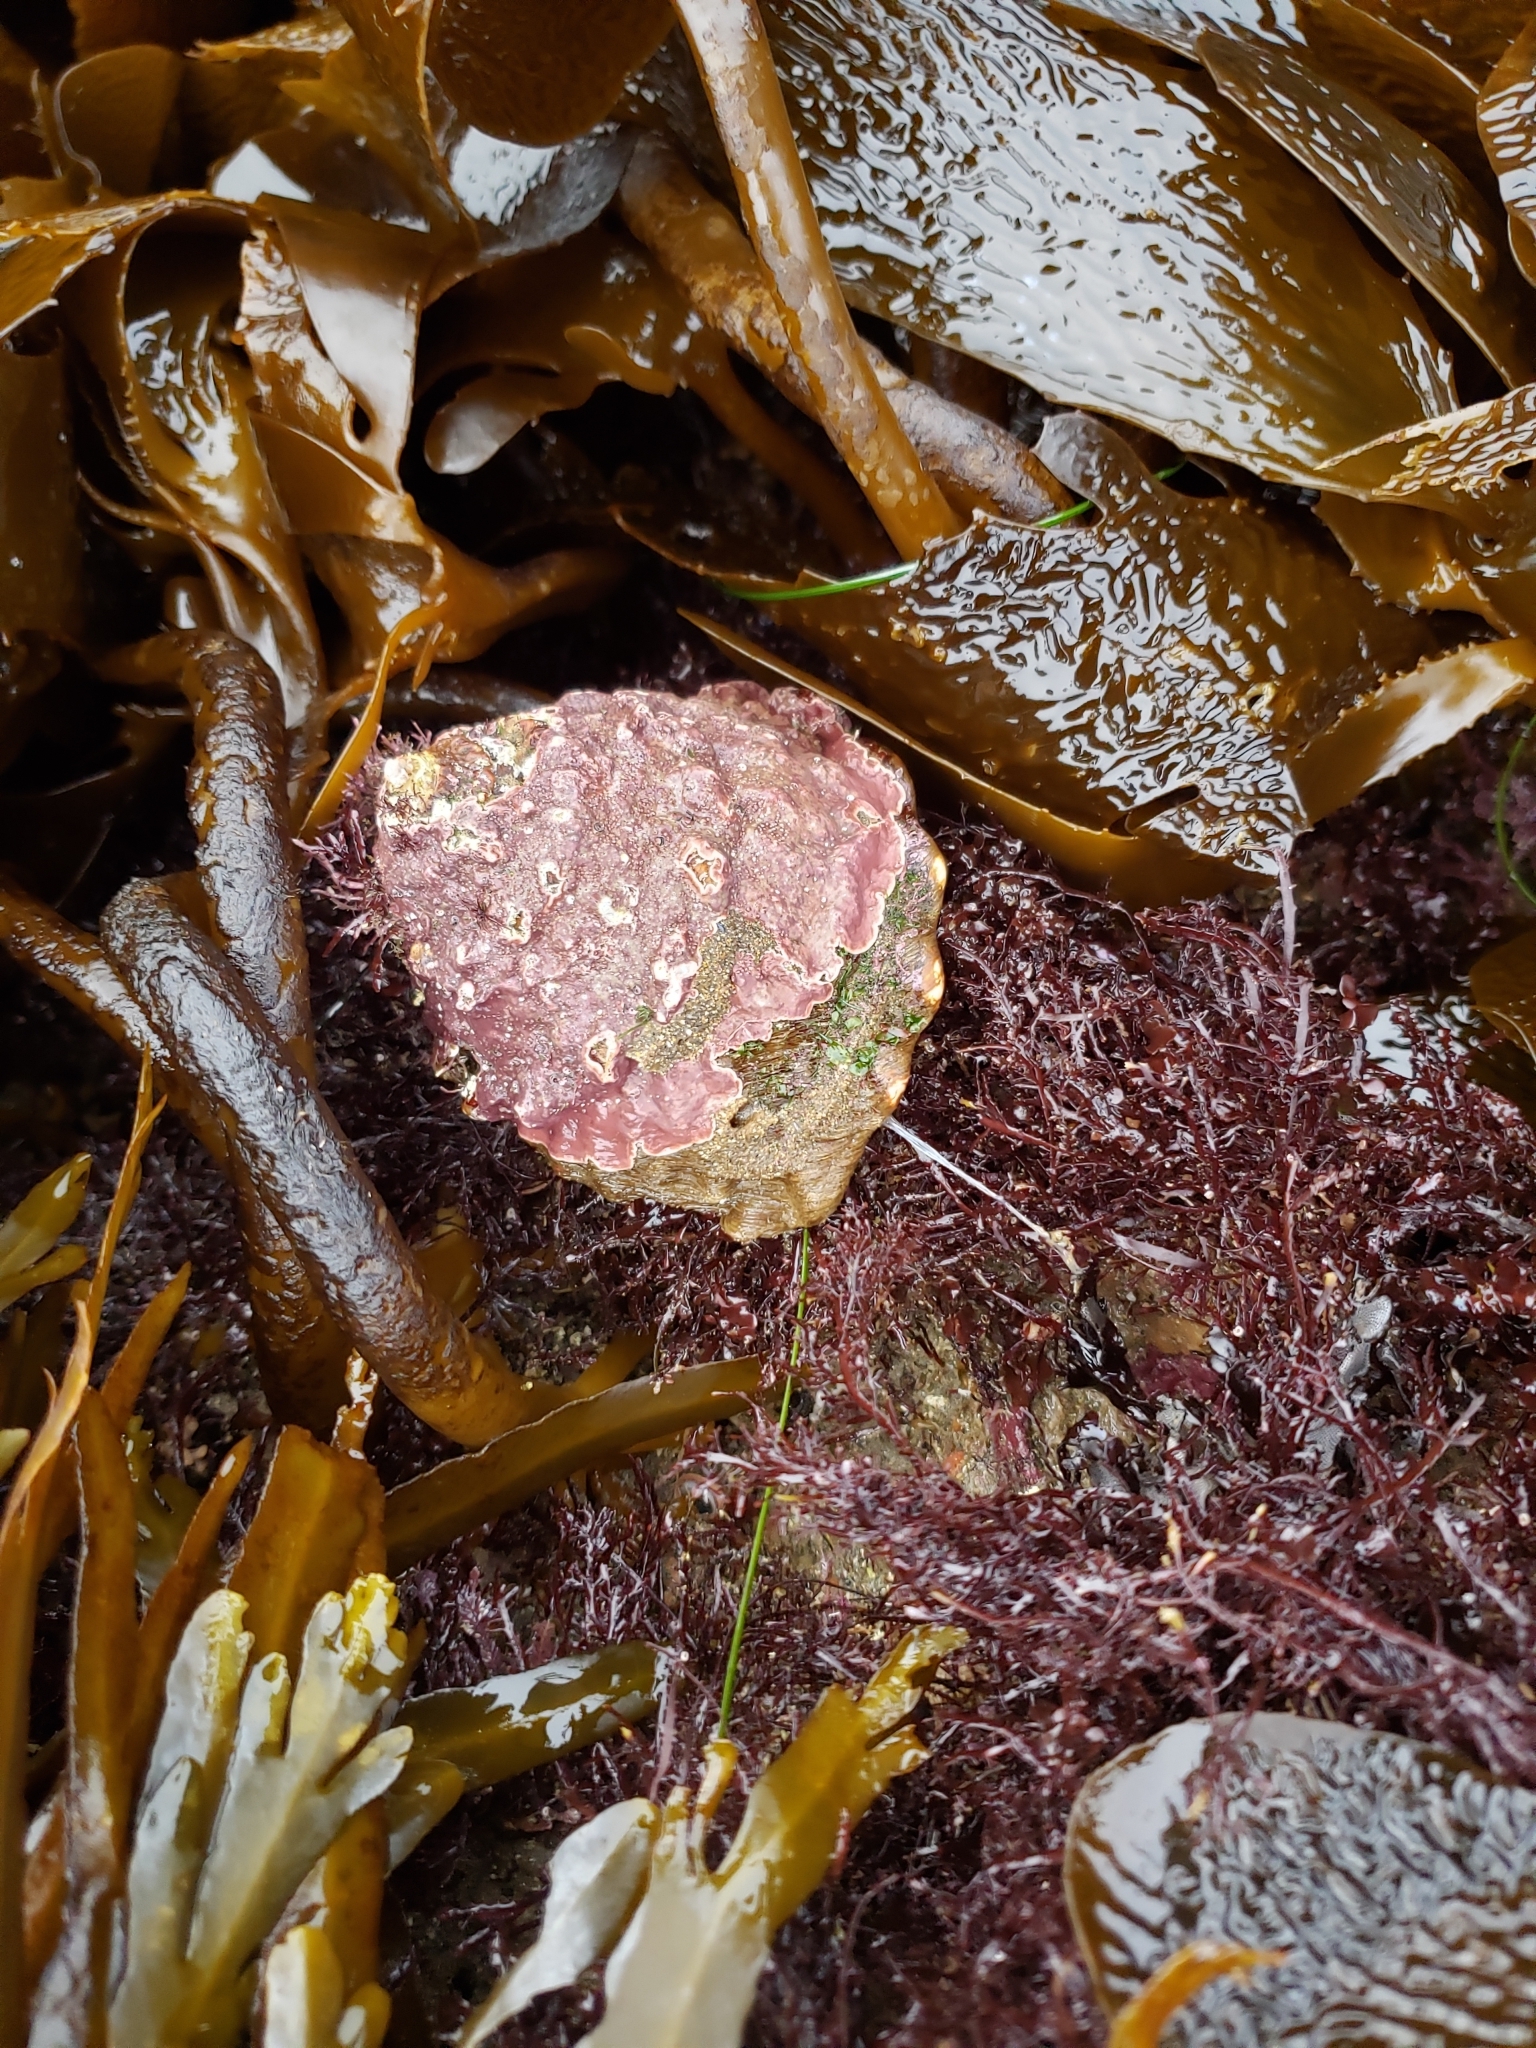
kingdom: Animalia
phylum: Mollusca
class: Gastropoda
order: Trochida
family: Turbinidae
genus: Megastraea
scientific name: Megastraea undosa
